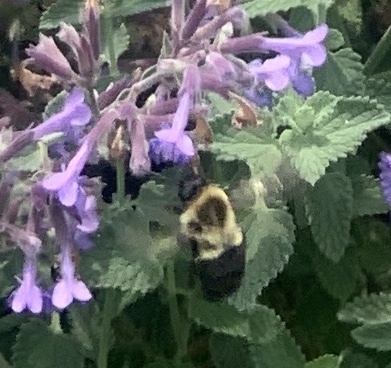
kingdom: Animalia
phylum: Arthropoda
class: Insecta
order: Hymenoptera
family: Apidae
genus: Bombus
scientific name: Bombus impatiens
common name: Common eastern bumble bee
